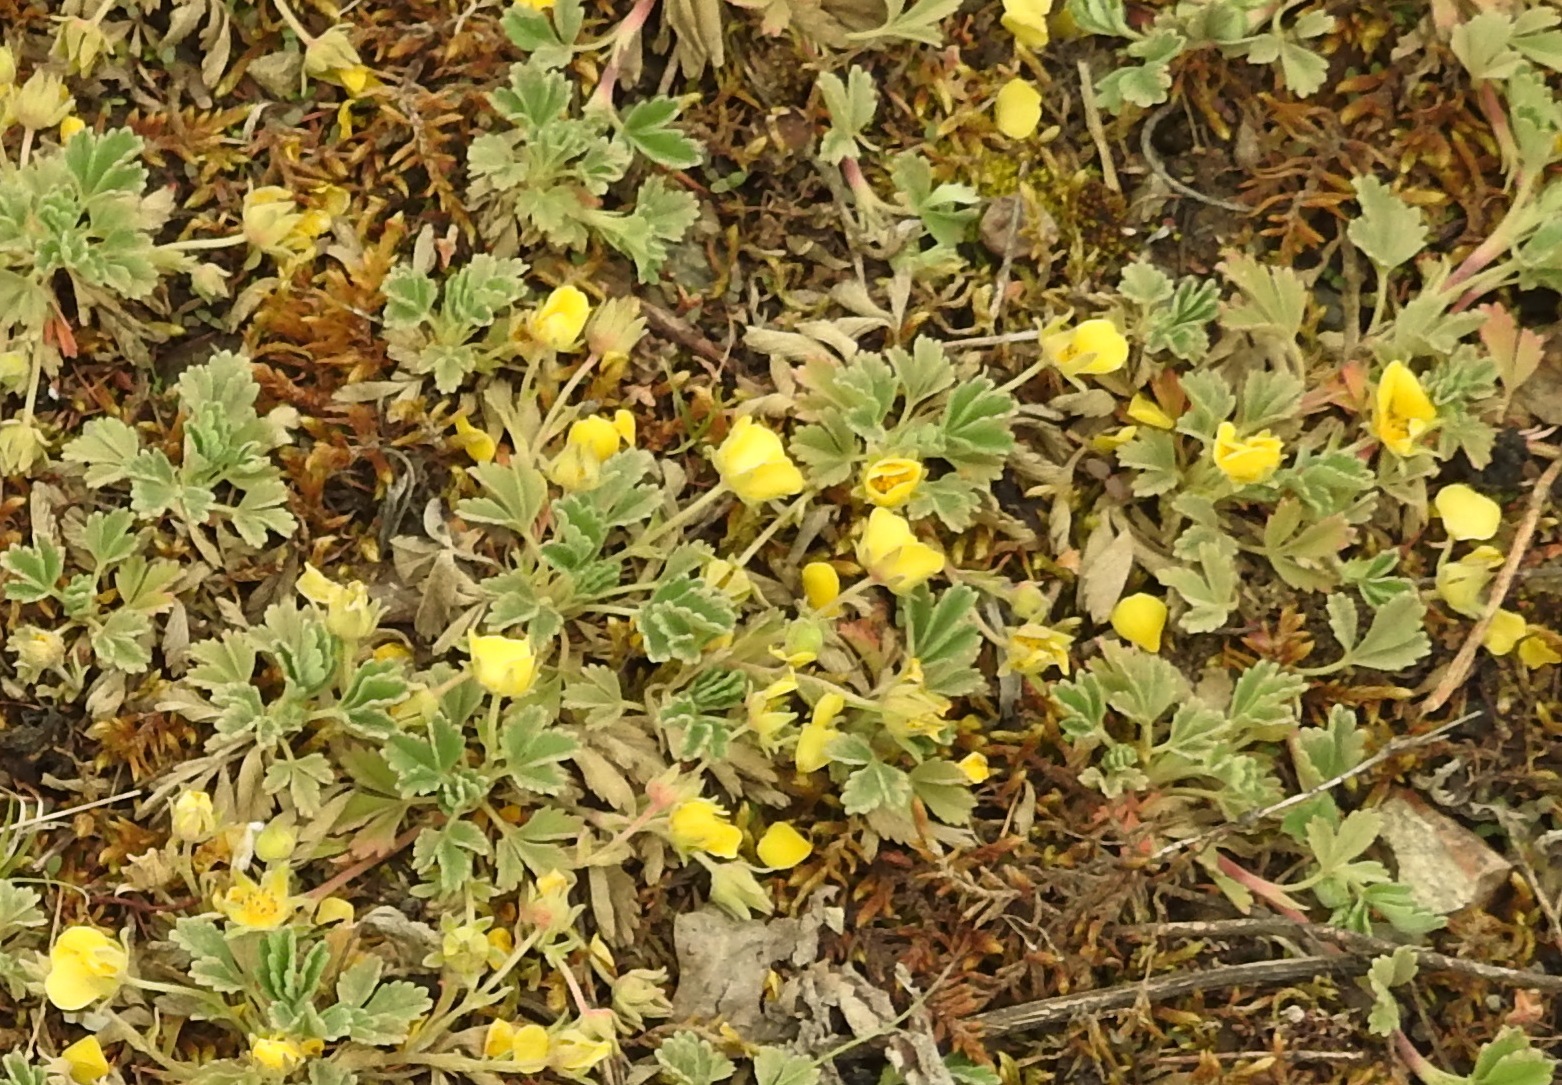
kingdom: Plantae
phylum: Tracheophyta
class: Magnoliopsida
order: Rosales
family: Rosaceae
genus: Potentilla
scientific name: Potentilla acaulis
